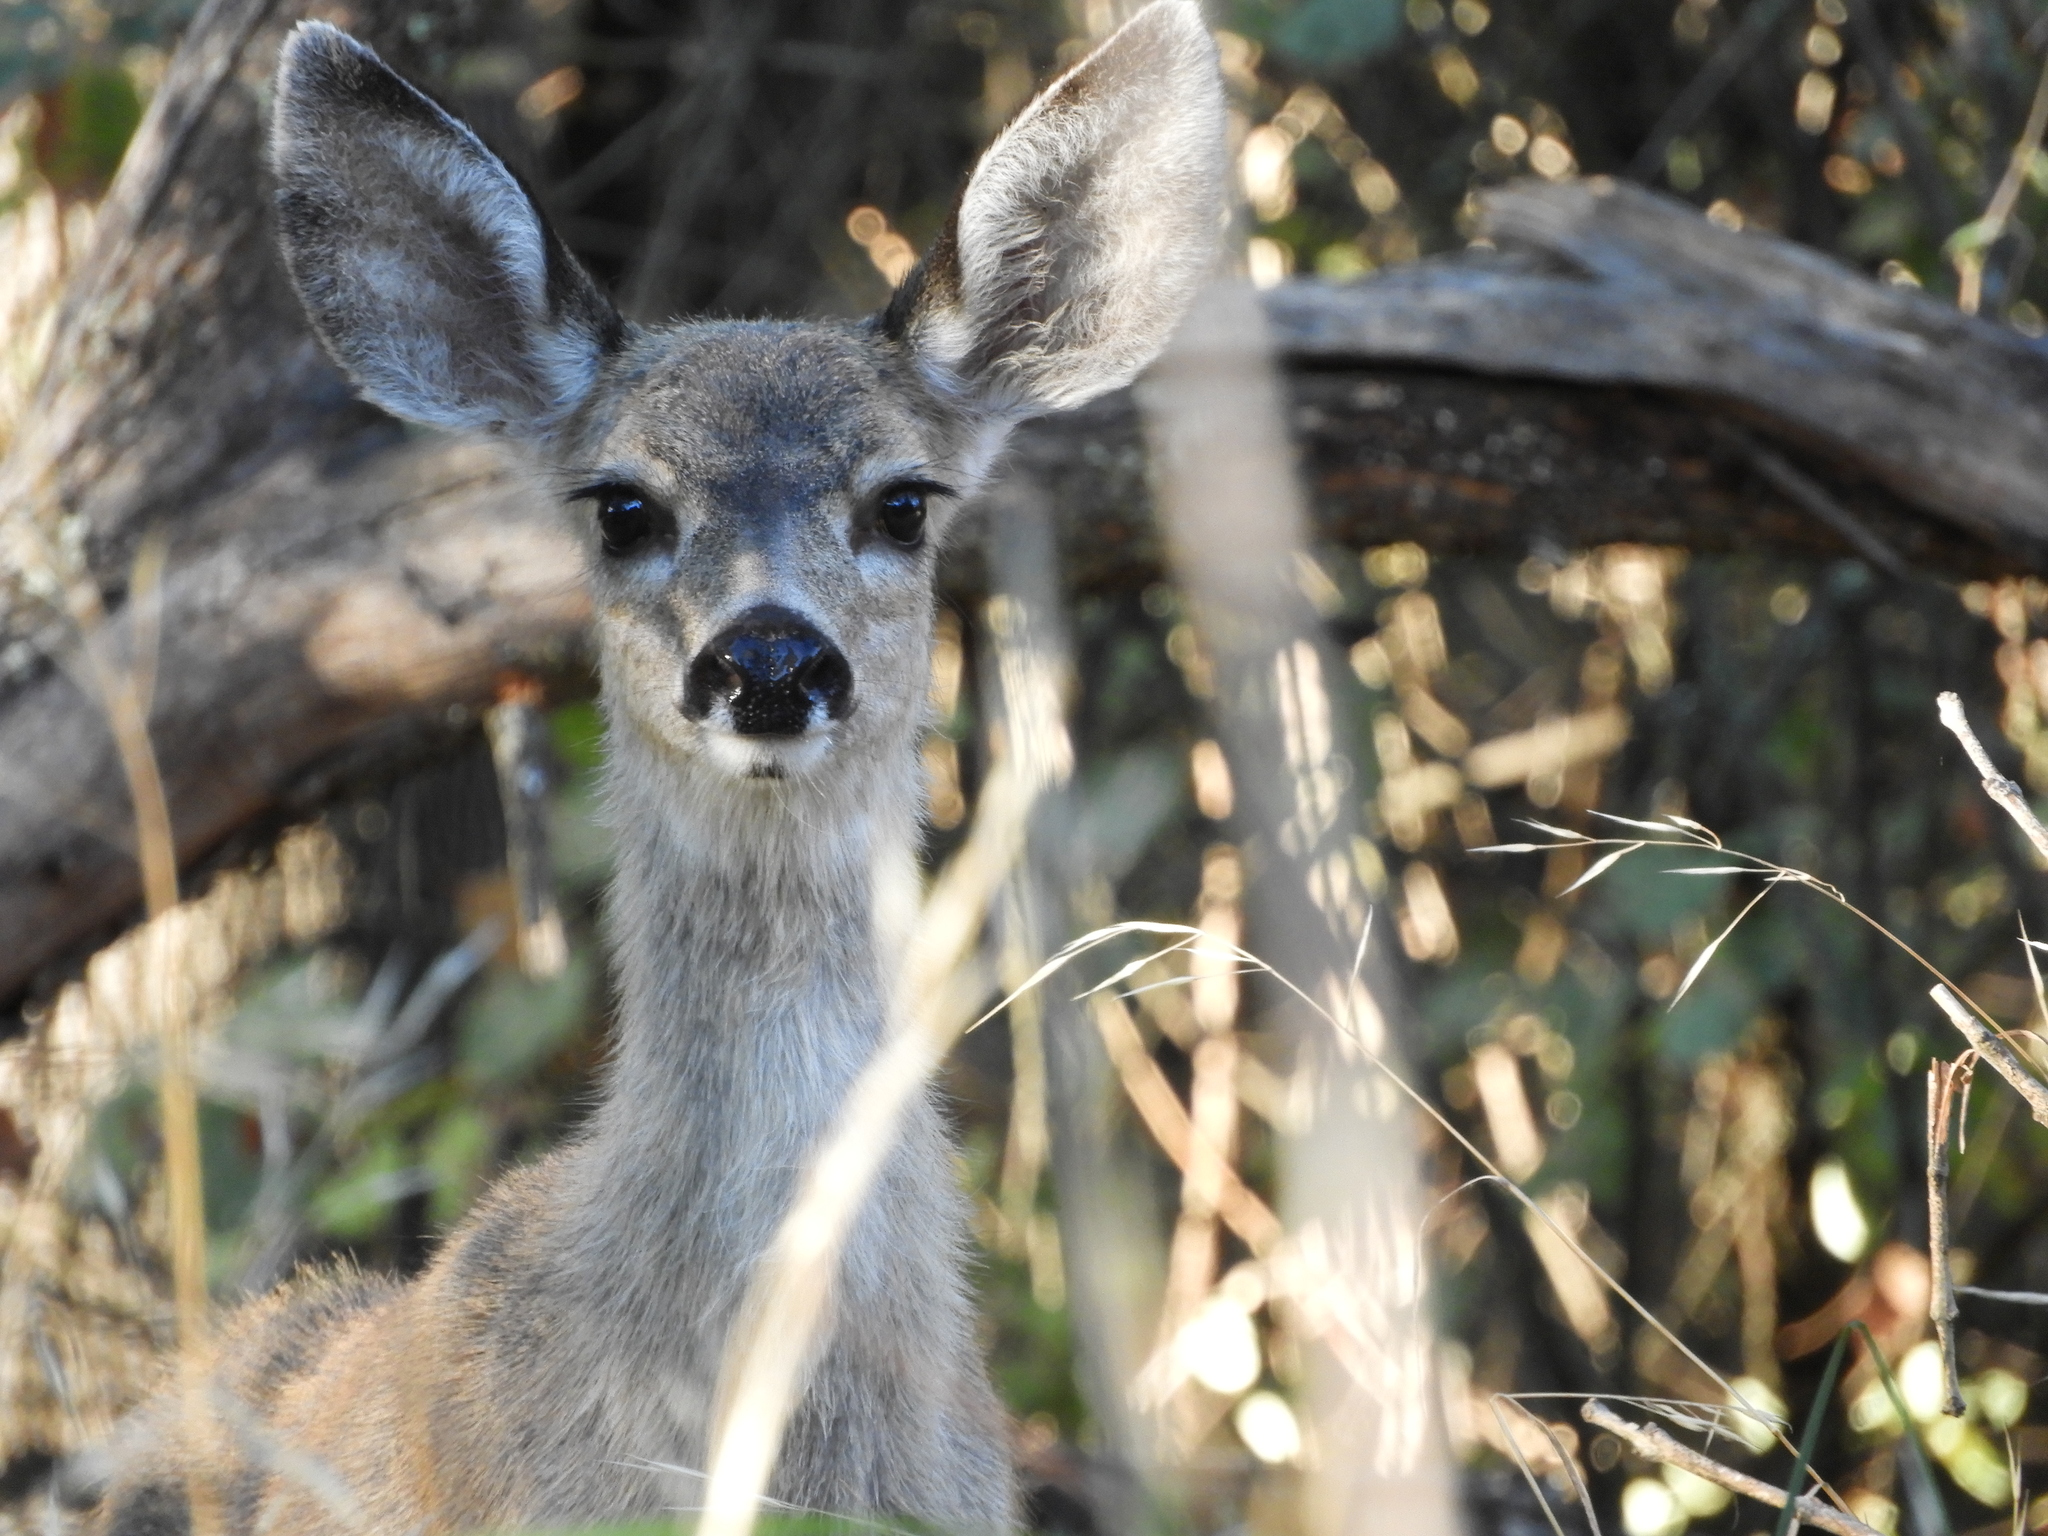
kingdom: Animalia
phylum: Chordata
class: Mammalia
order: Artiodactyla
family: Cervidae
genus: Odocoileus
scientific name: Odocoileus hemionus
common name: Mule deer
